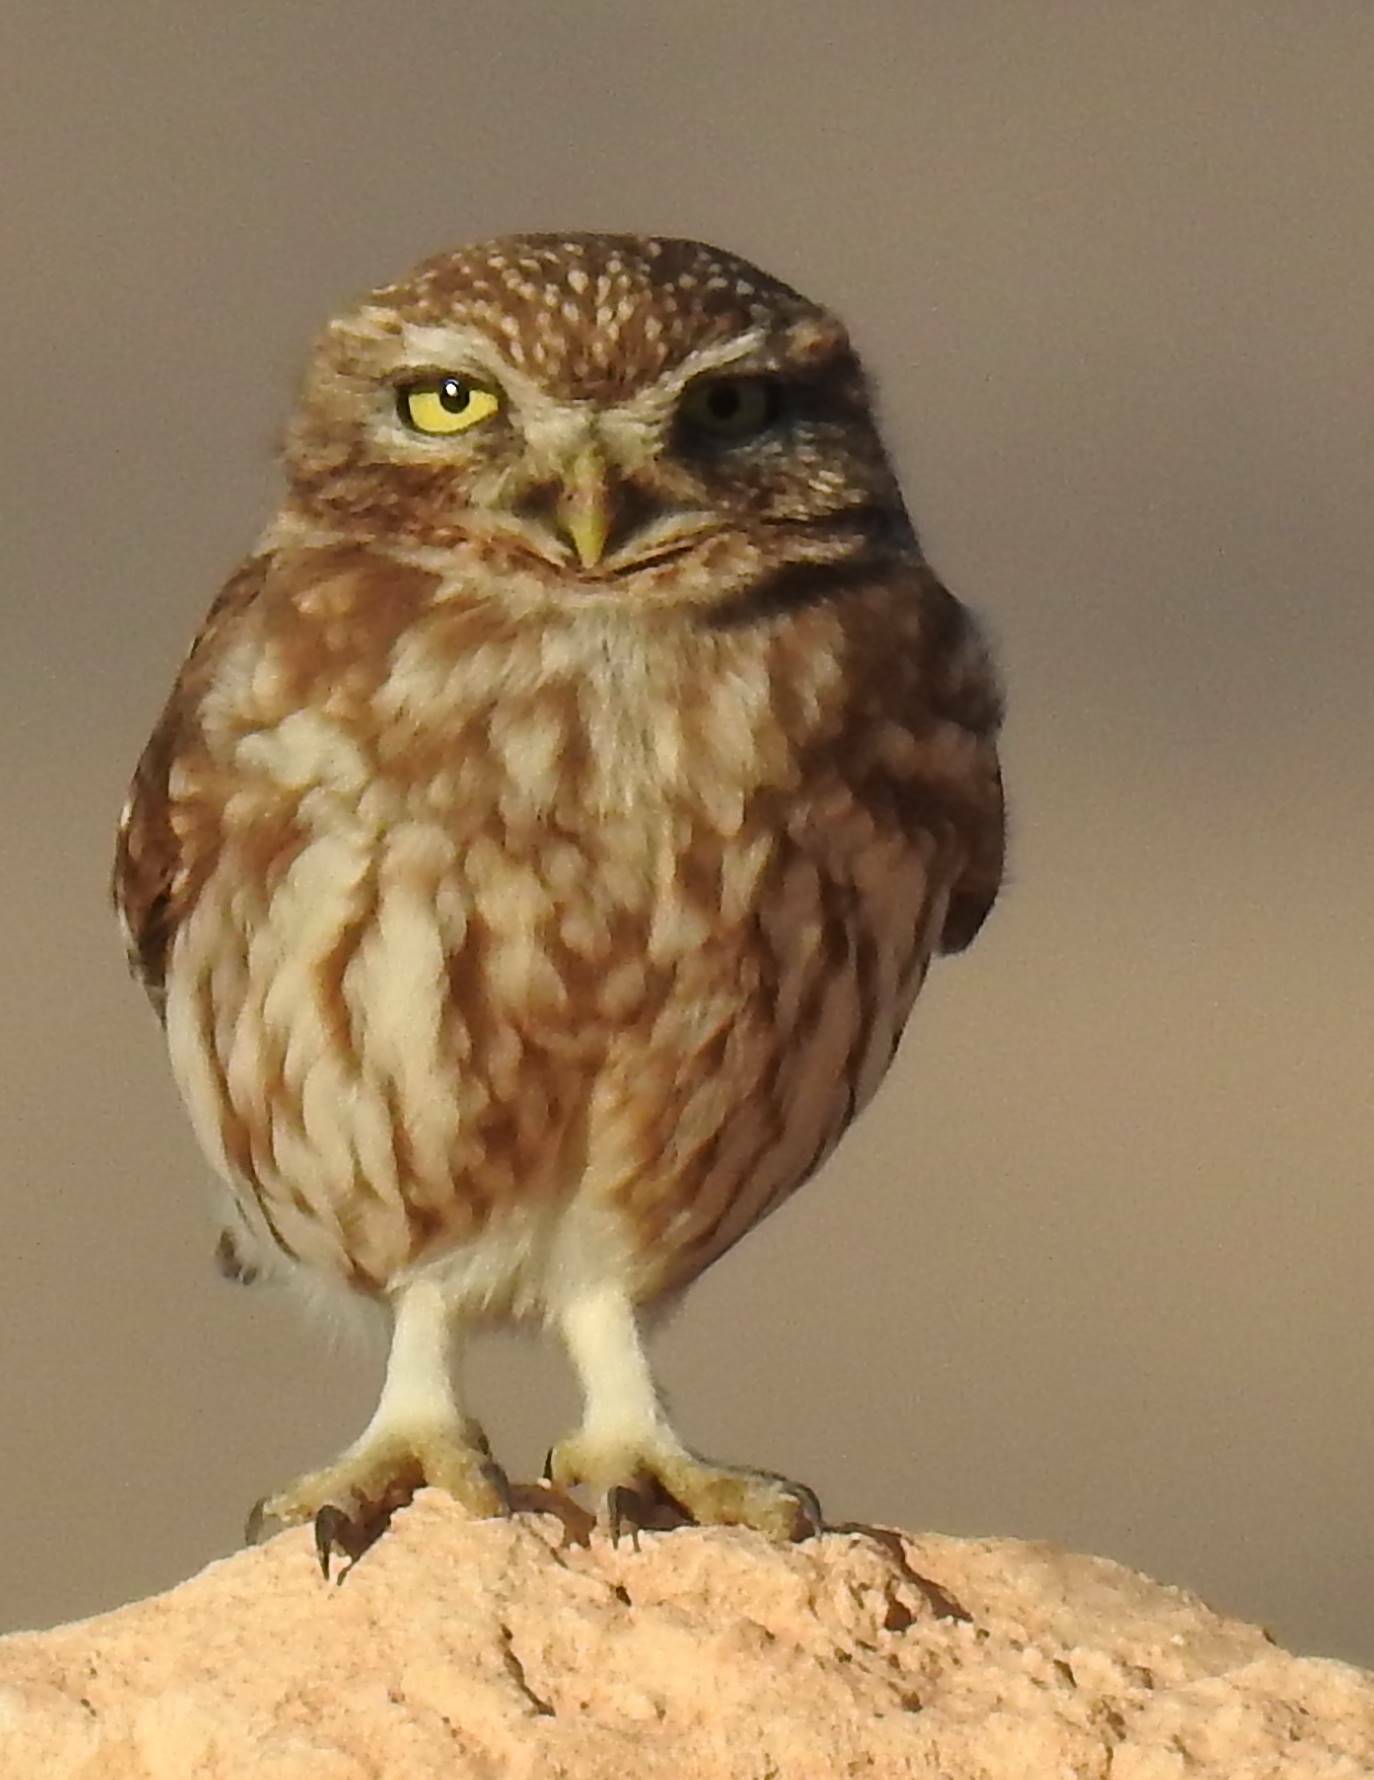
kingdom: Animalia
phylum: Chordata
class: Aves
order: Strigiformes
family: Strigidae
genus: Athene
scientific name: Athene noctua
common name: Little owl
